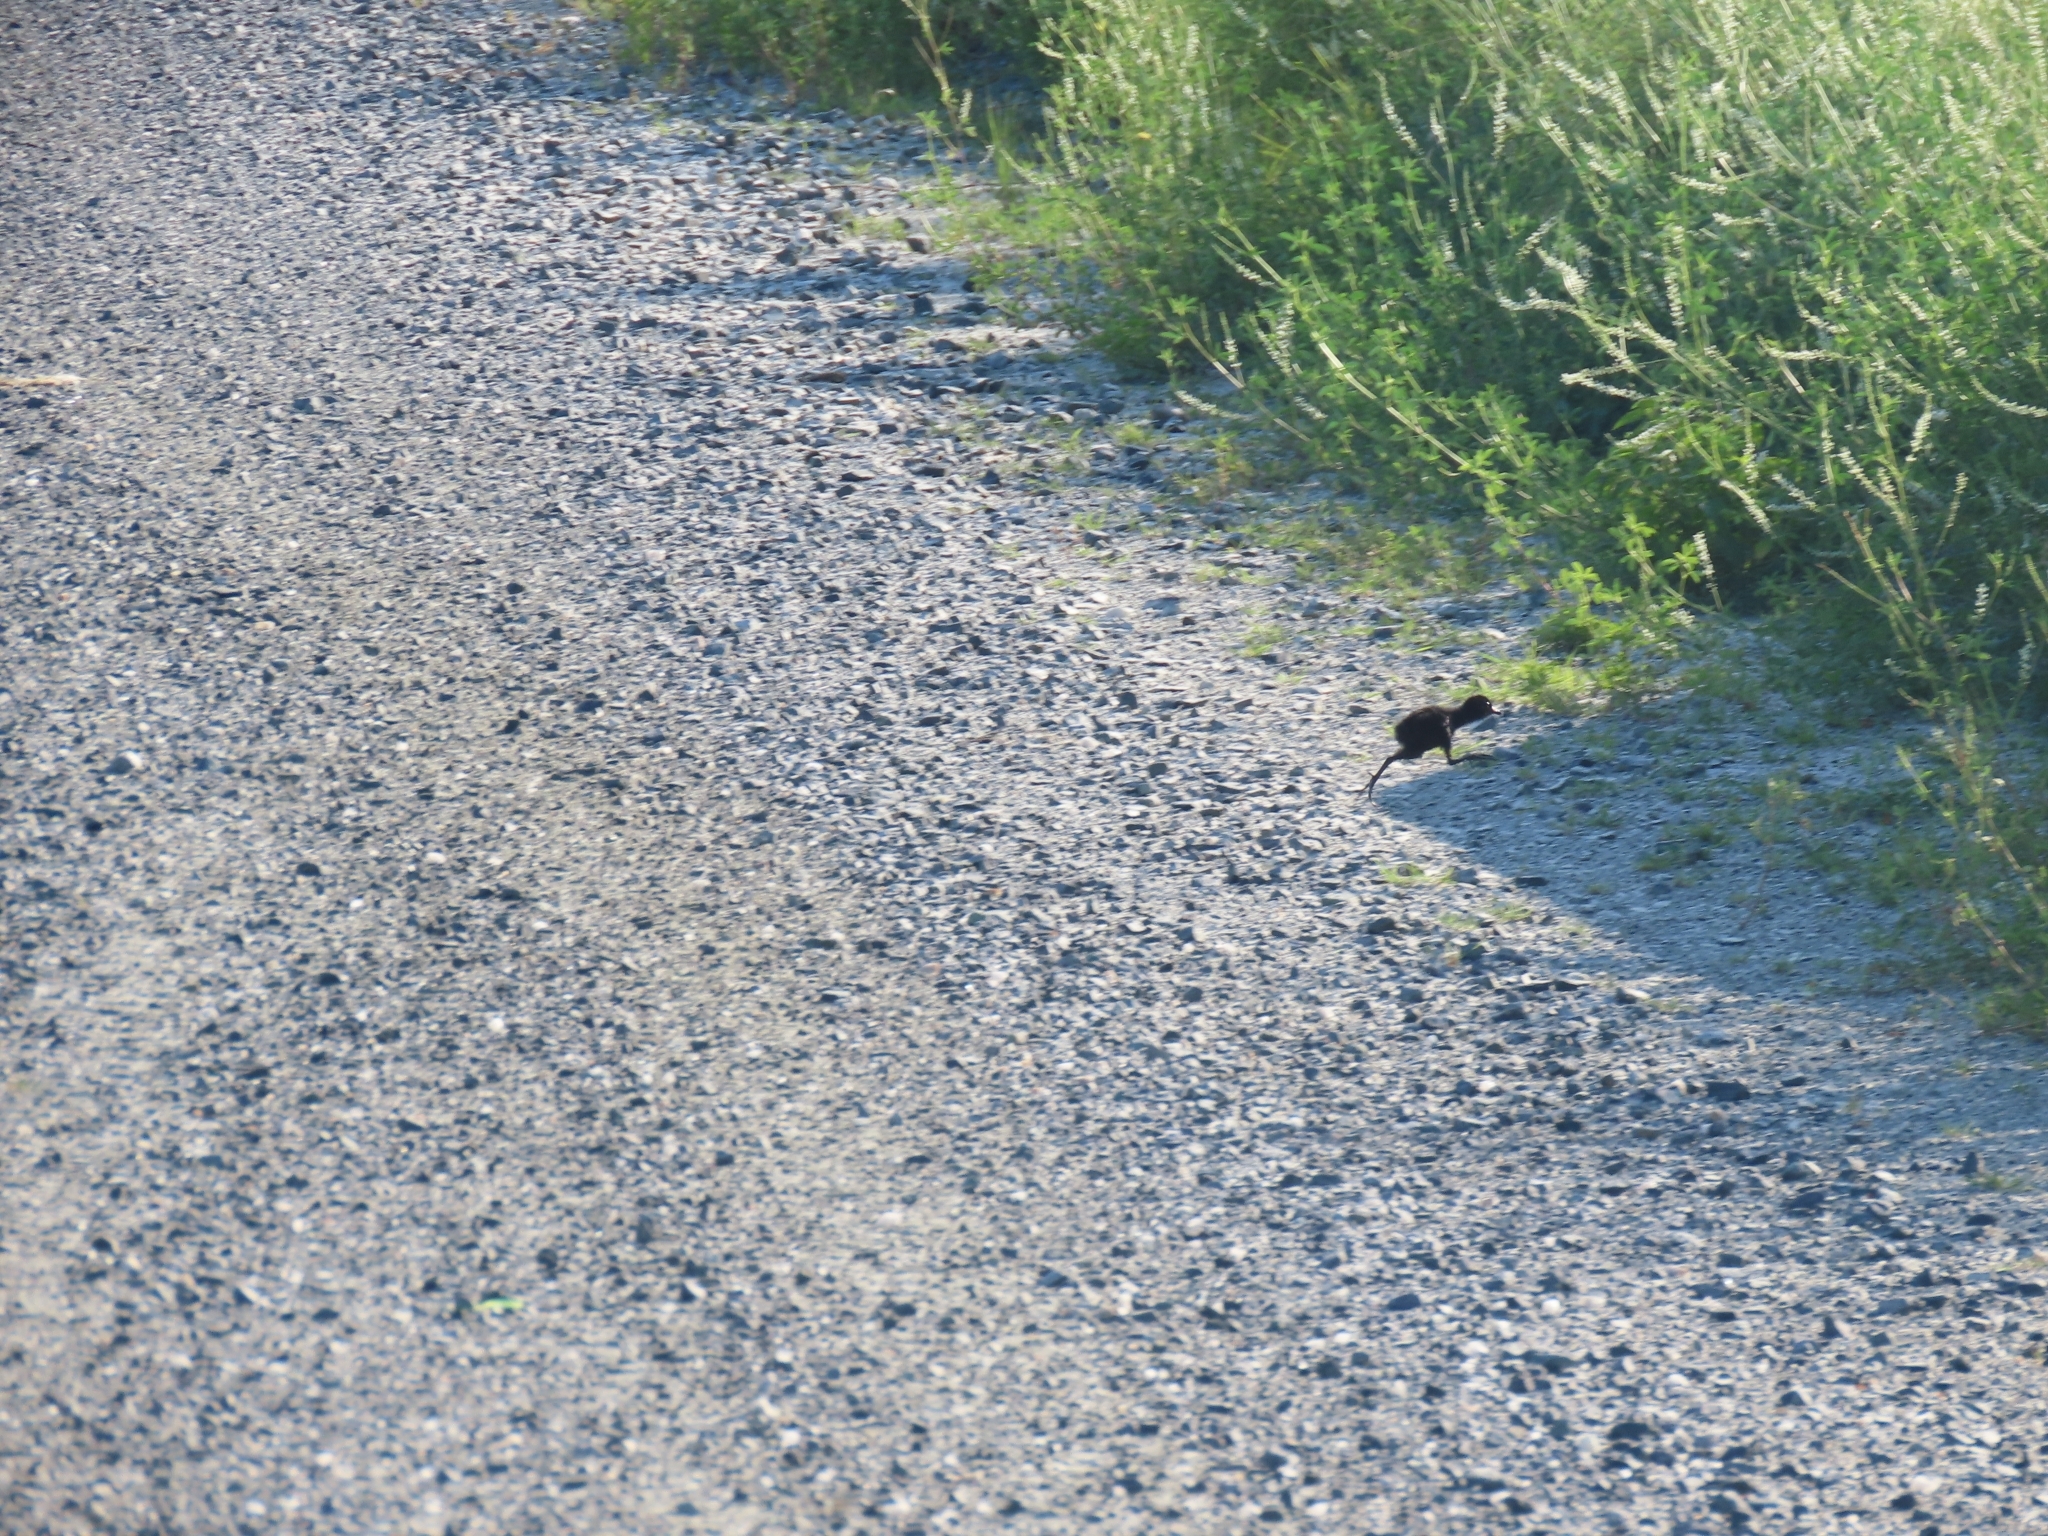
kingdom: Animalia
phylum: Chordata
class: Aves
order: Gruiformes
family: Rallidae
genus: Rallus
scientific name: Rallus limicola
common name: Virginia rail
